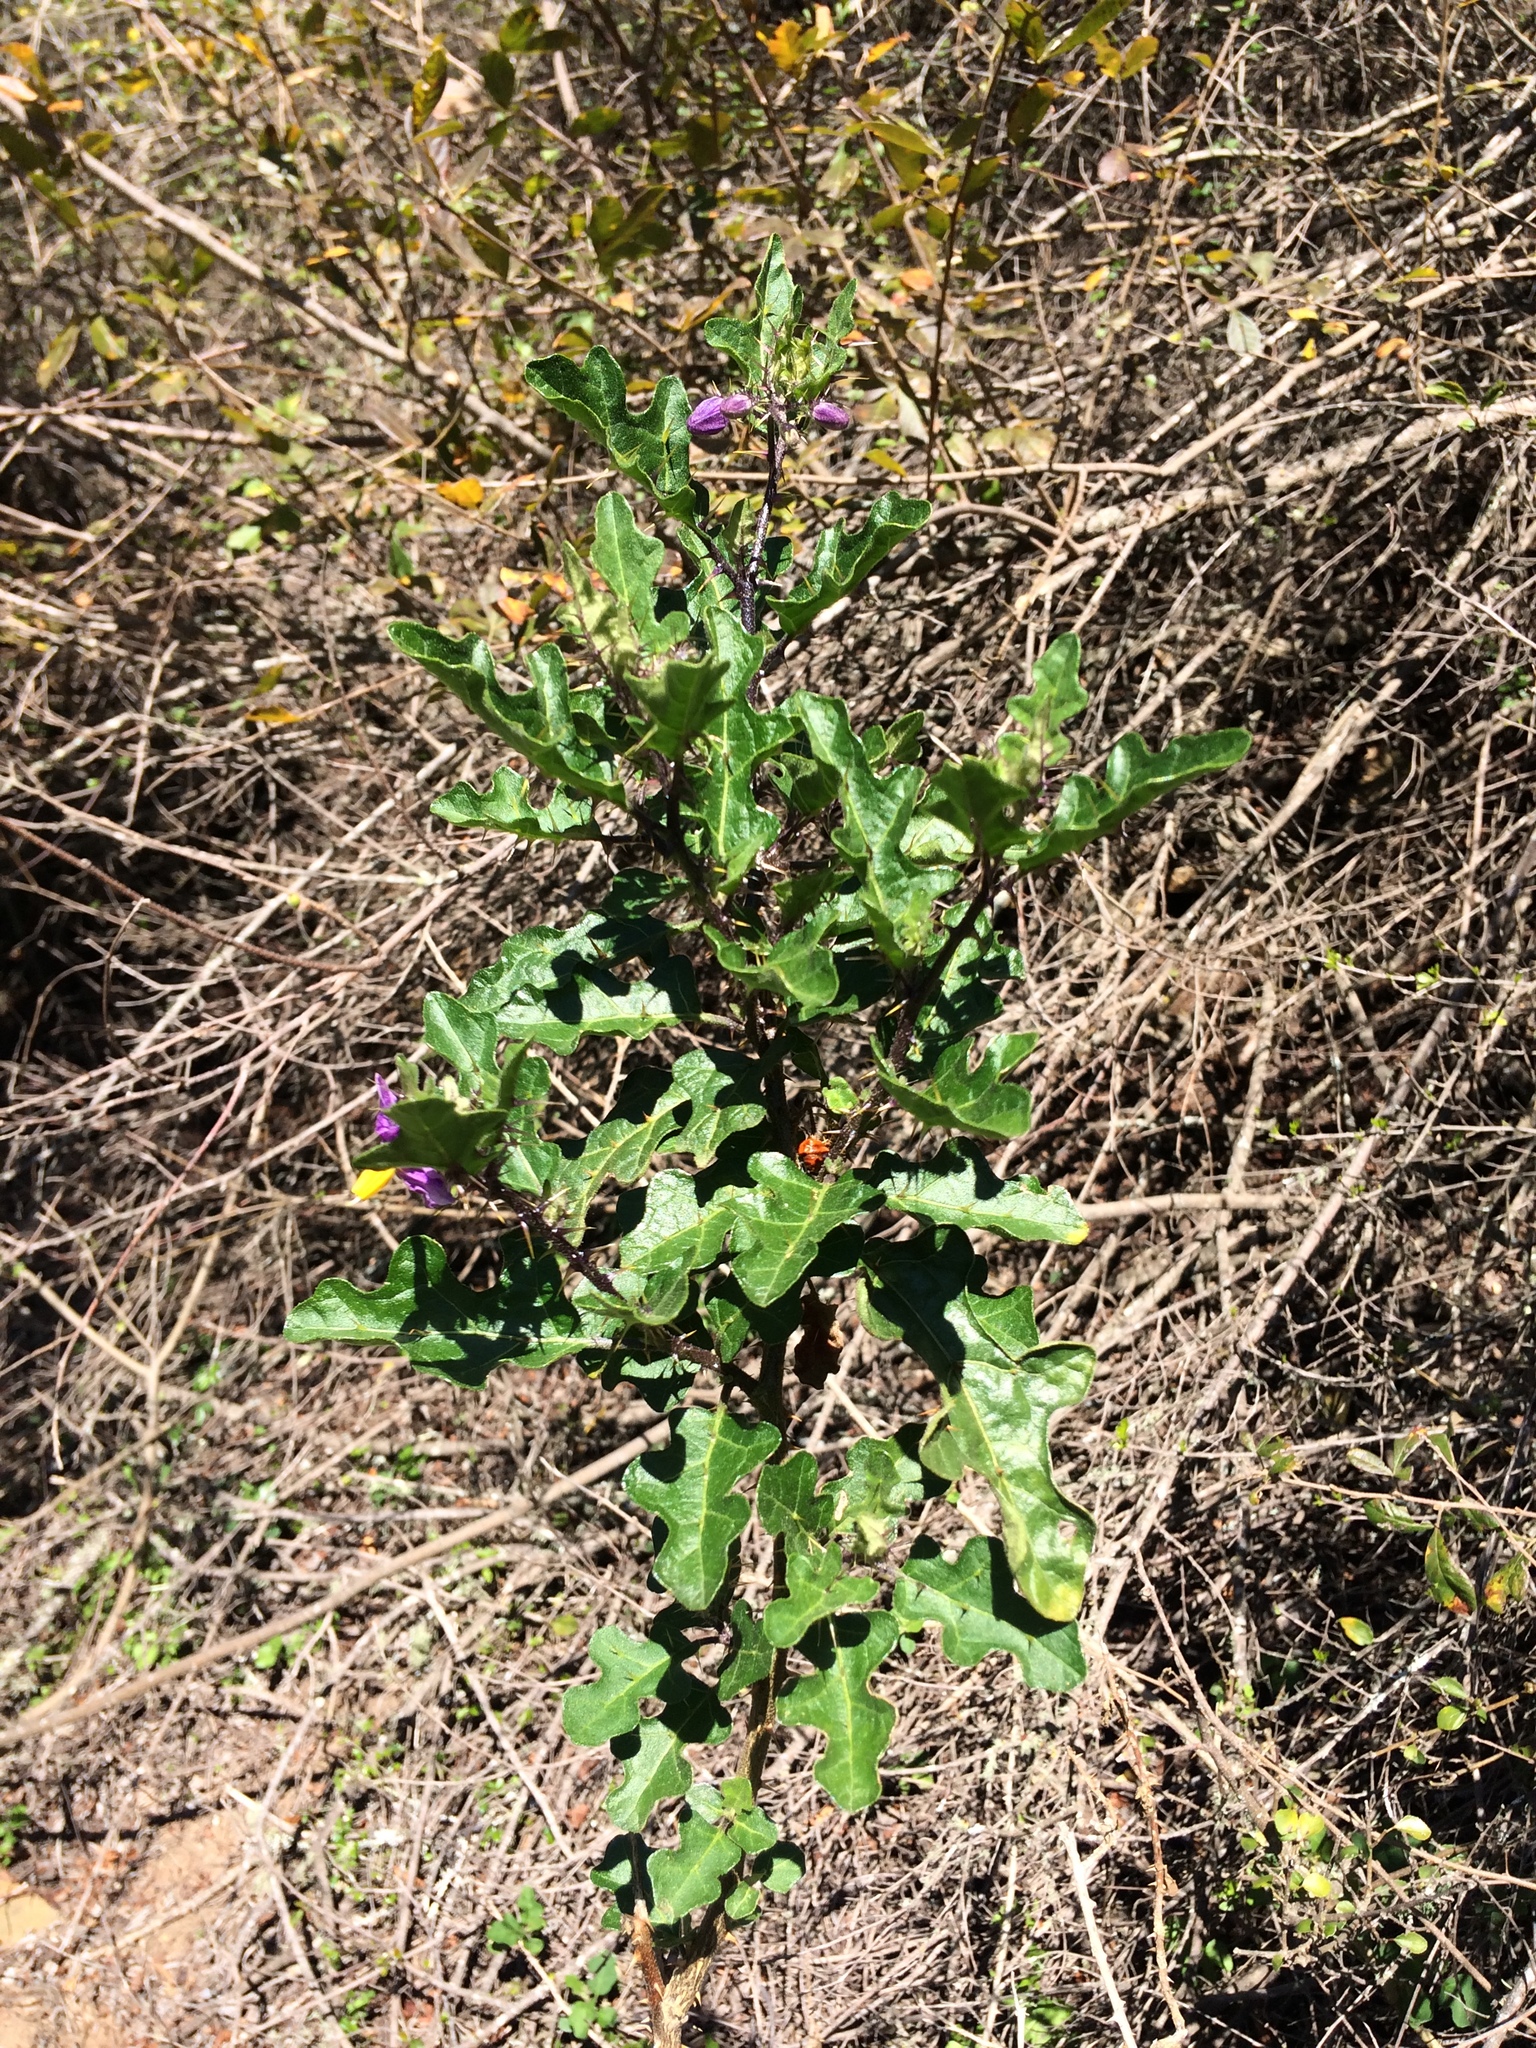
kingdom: Plantae
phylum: Tracheophyta
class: Magnoliopsida
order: Solanales
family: Solanaceae
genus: Solanum
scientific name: Solanum rubetorum
